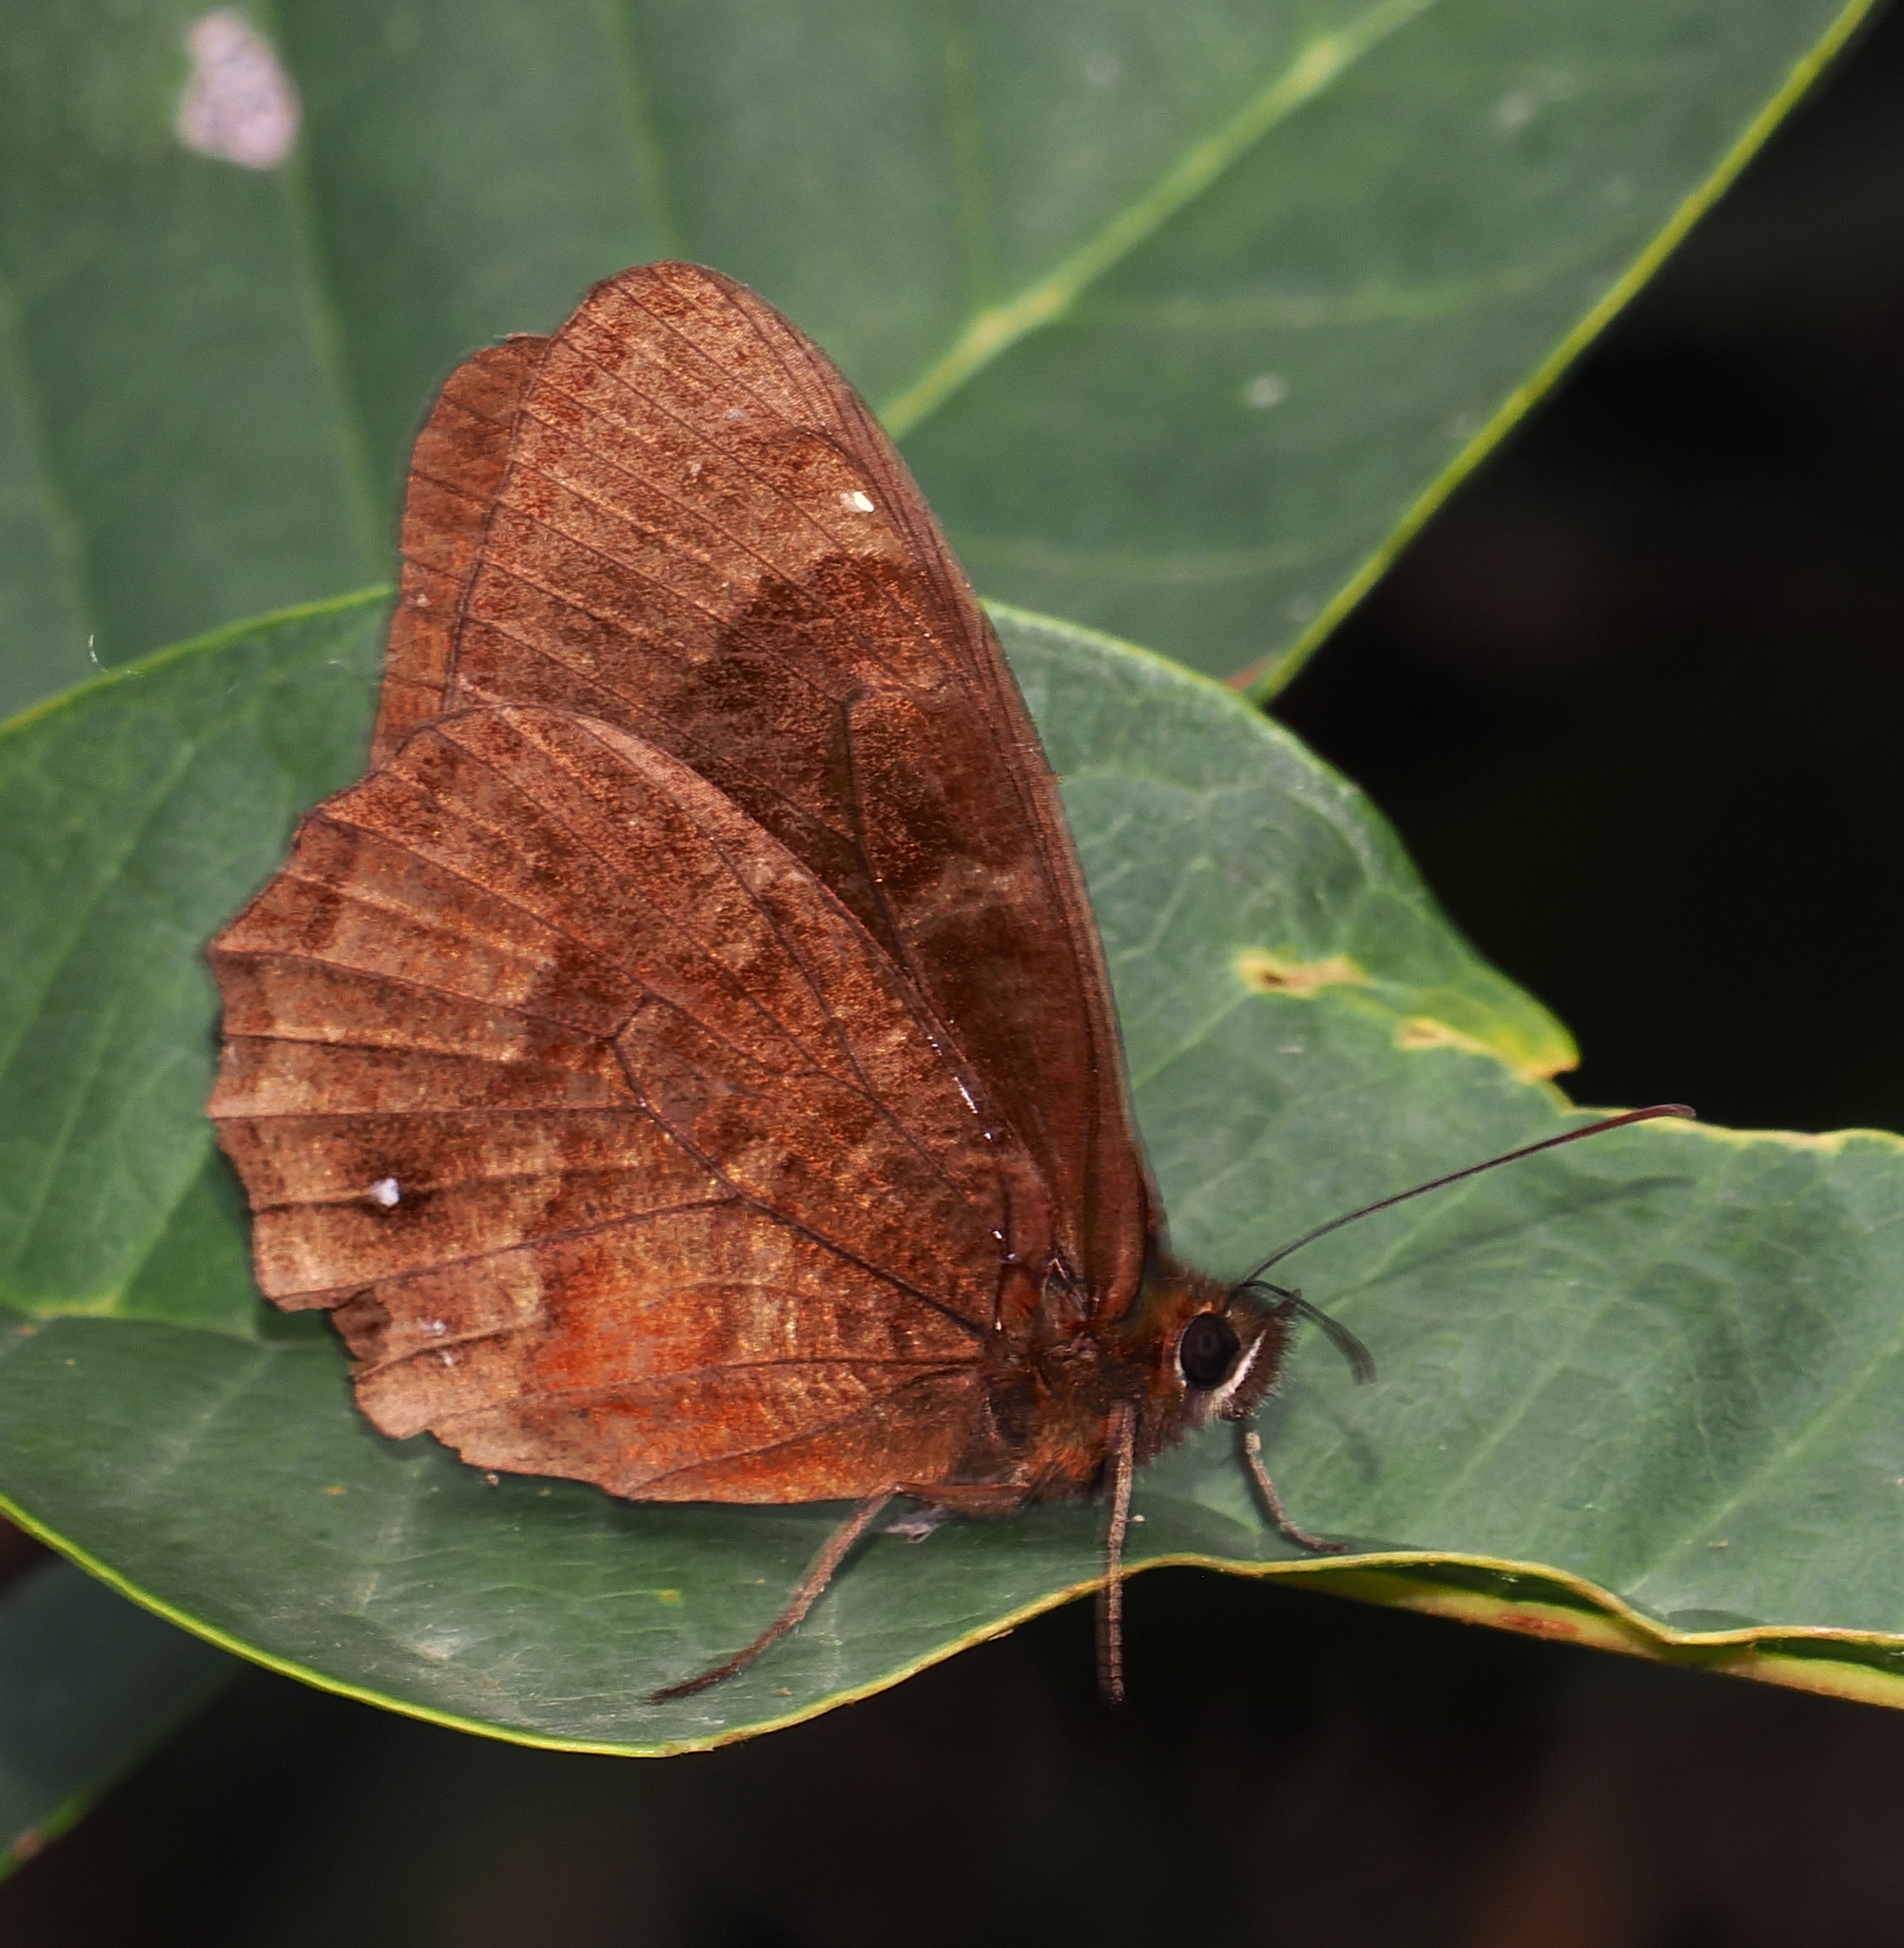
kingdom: Animalia
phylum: Arthropoda
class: Insecta
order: Lepidoptera
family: Nymphalidae
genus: Pedaliodes
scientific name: Pedaliodes
